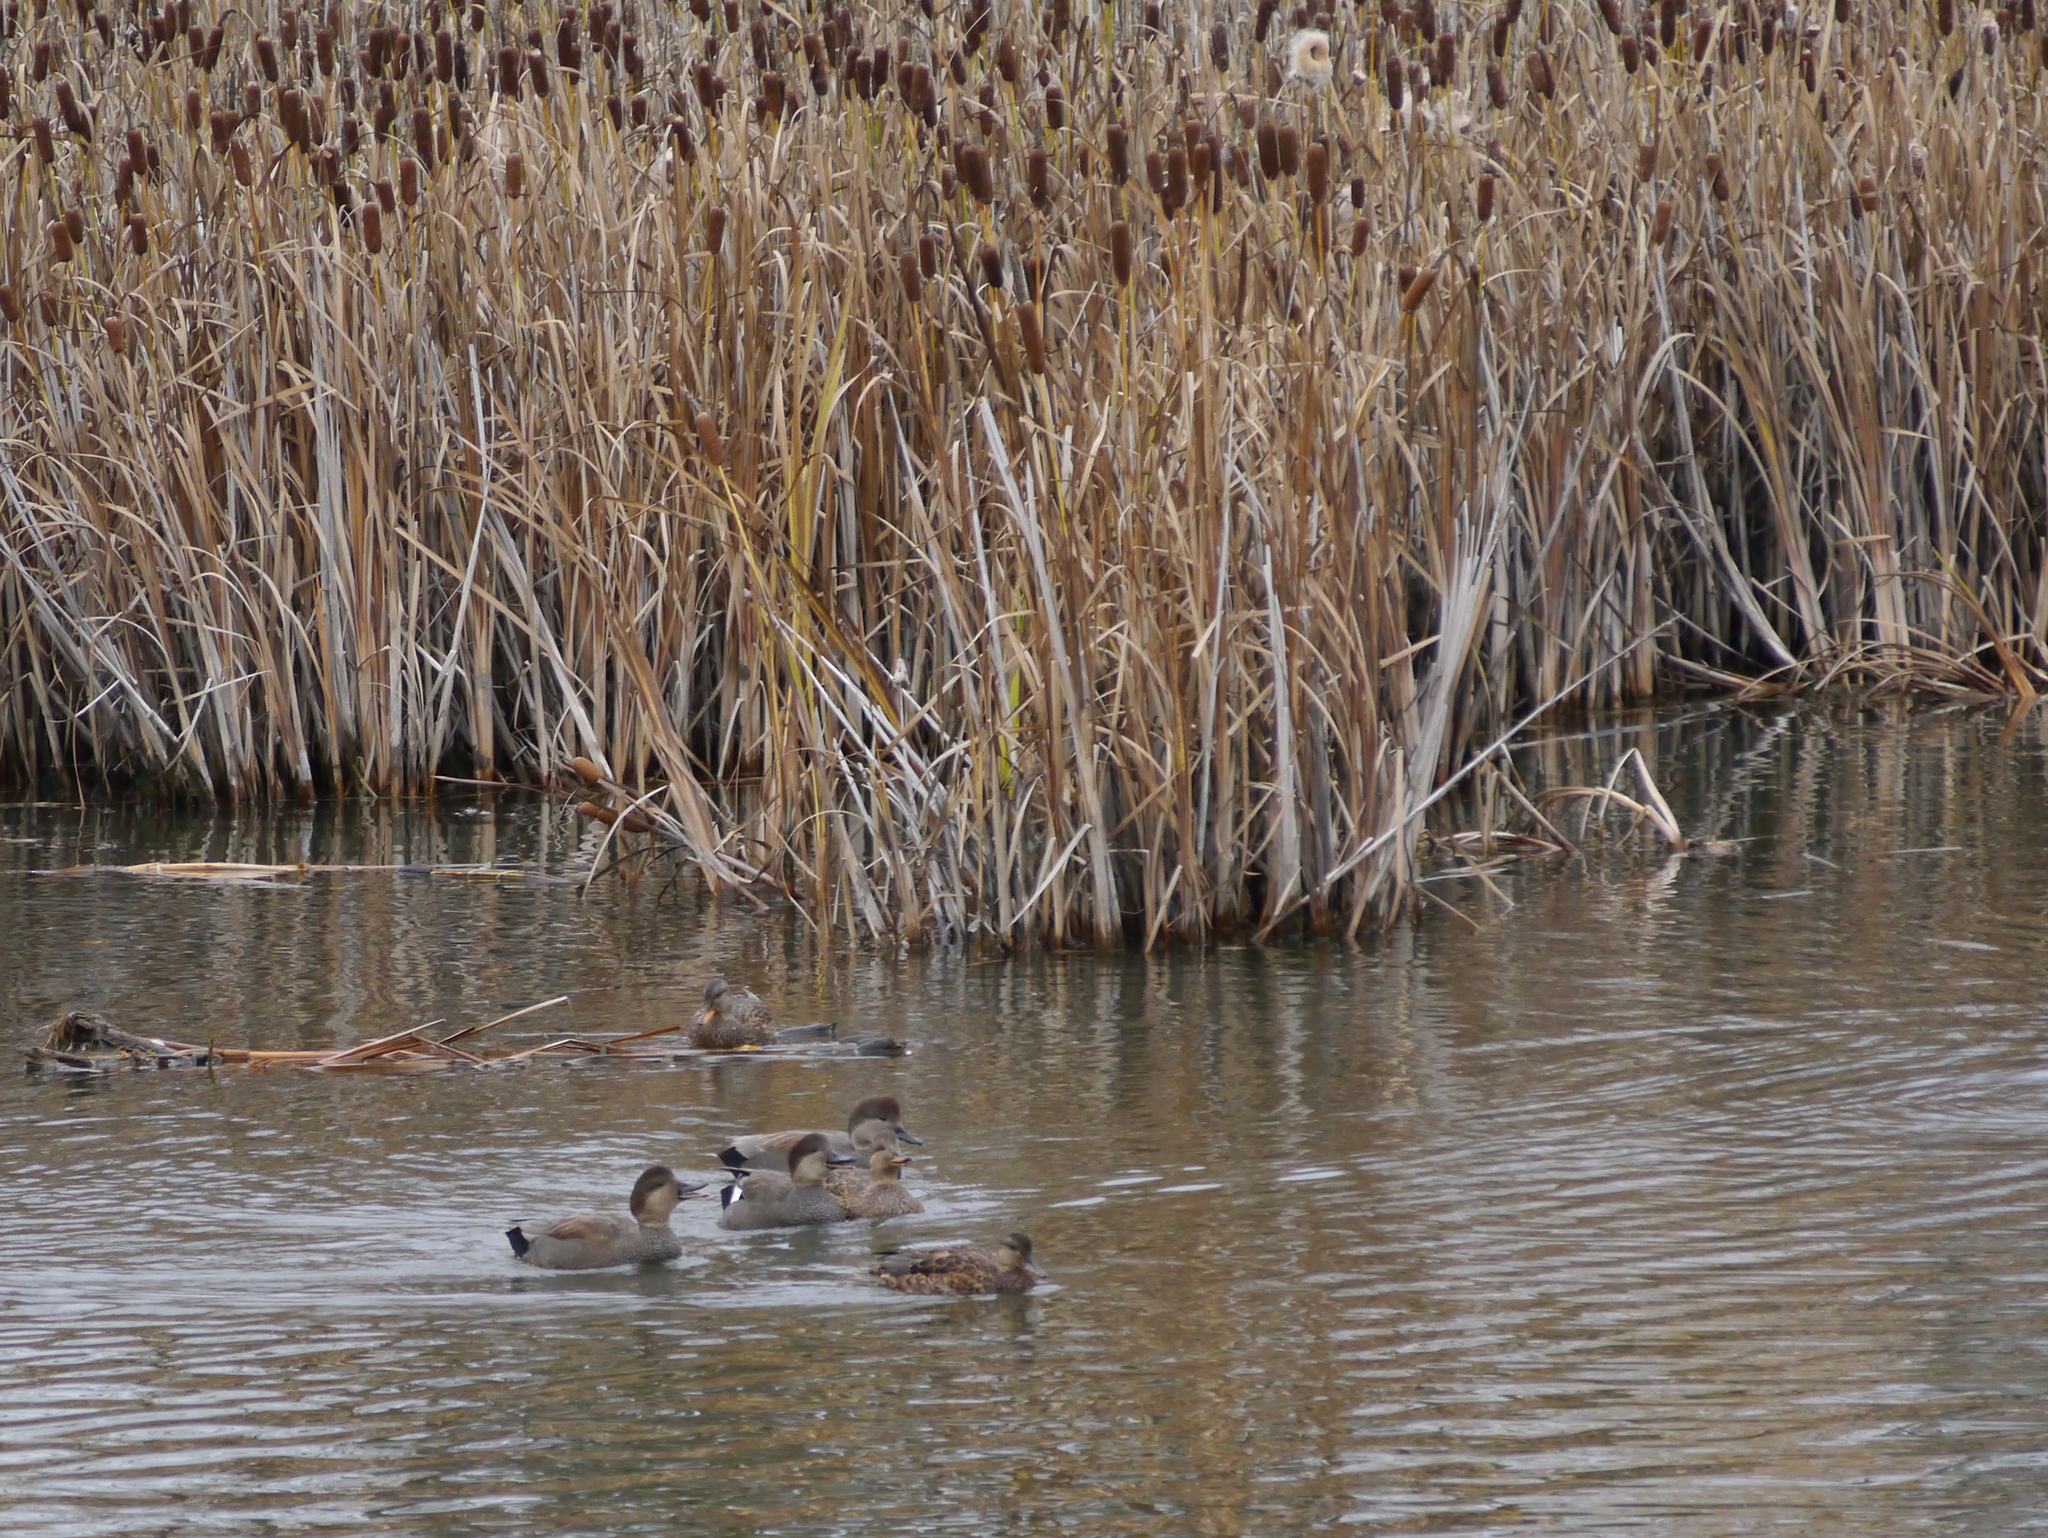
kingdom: Animalia
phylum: Chordata
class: Aves
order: Anseriformes
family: Anatidae
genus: Mareca
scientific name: Mareca strepera
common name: Gadwall
